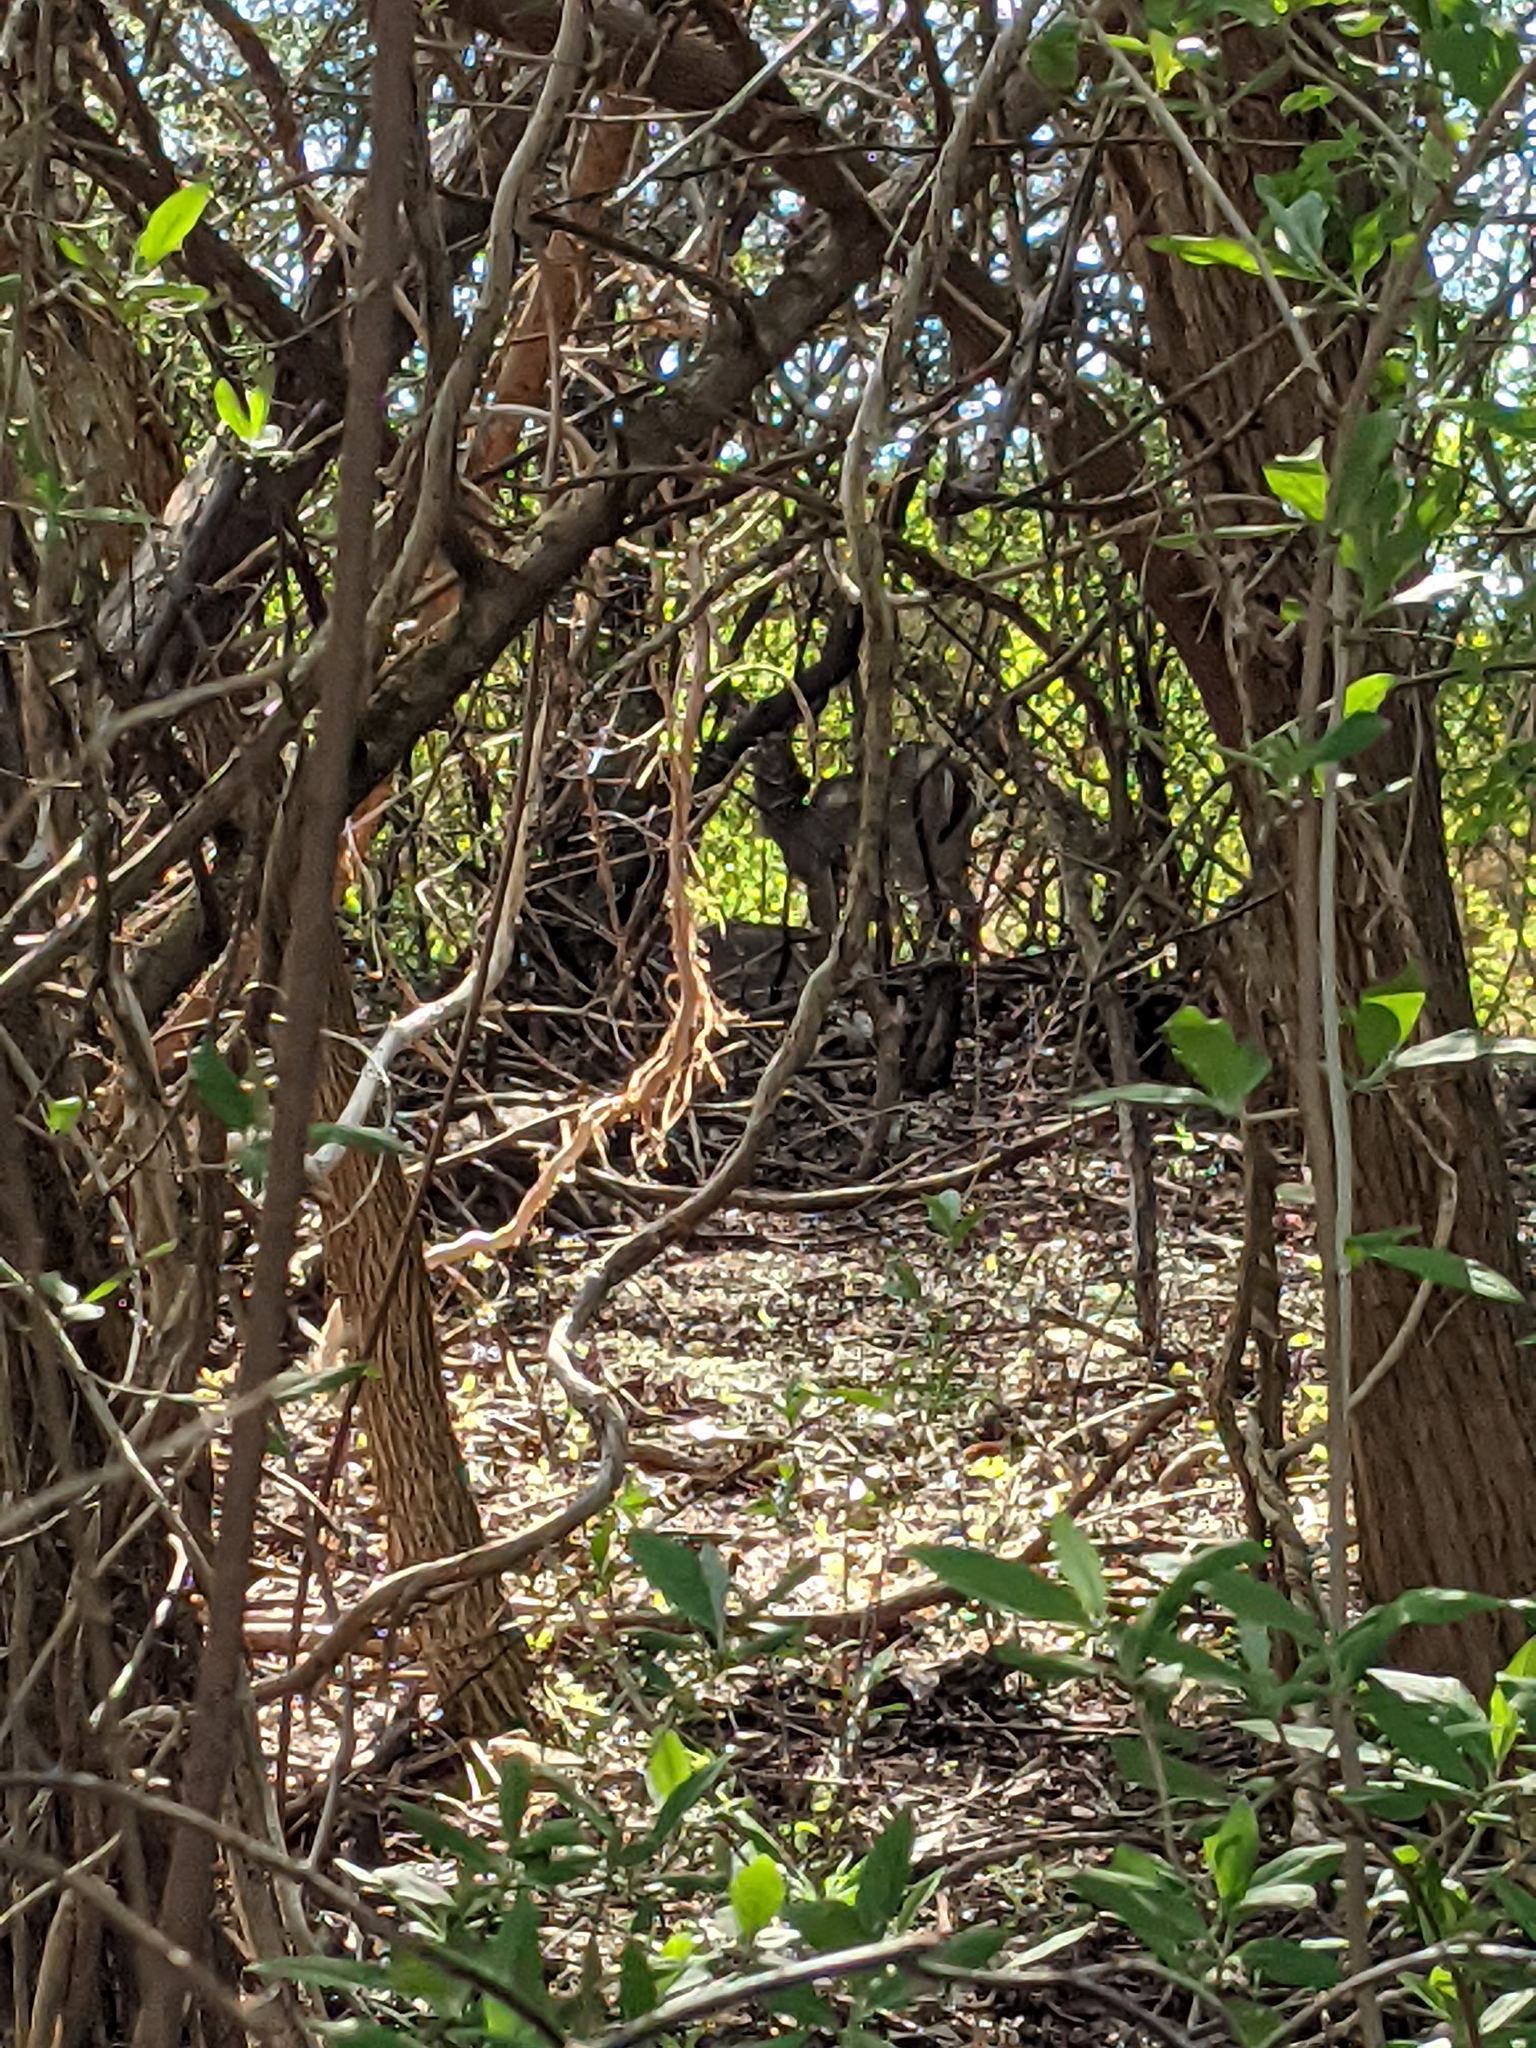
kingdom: Animalia
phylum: Chordata
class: Mammalia
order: Artiodactyla
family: Cervidae
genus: Odocoileus
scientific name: Odocoileus virginianus
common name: White-tailed deer
